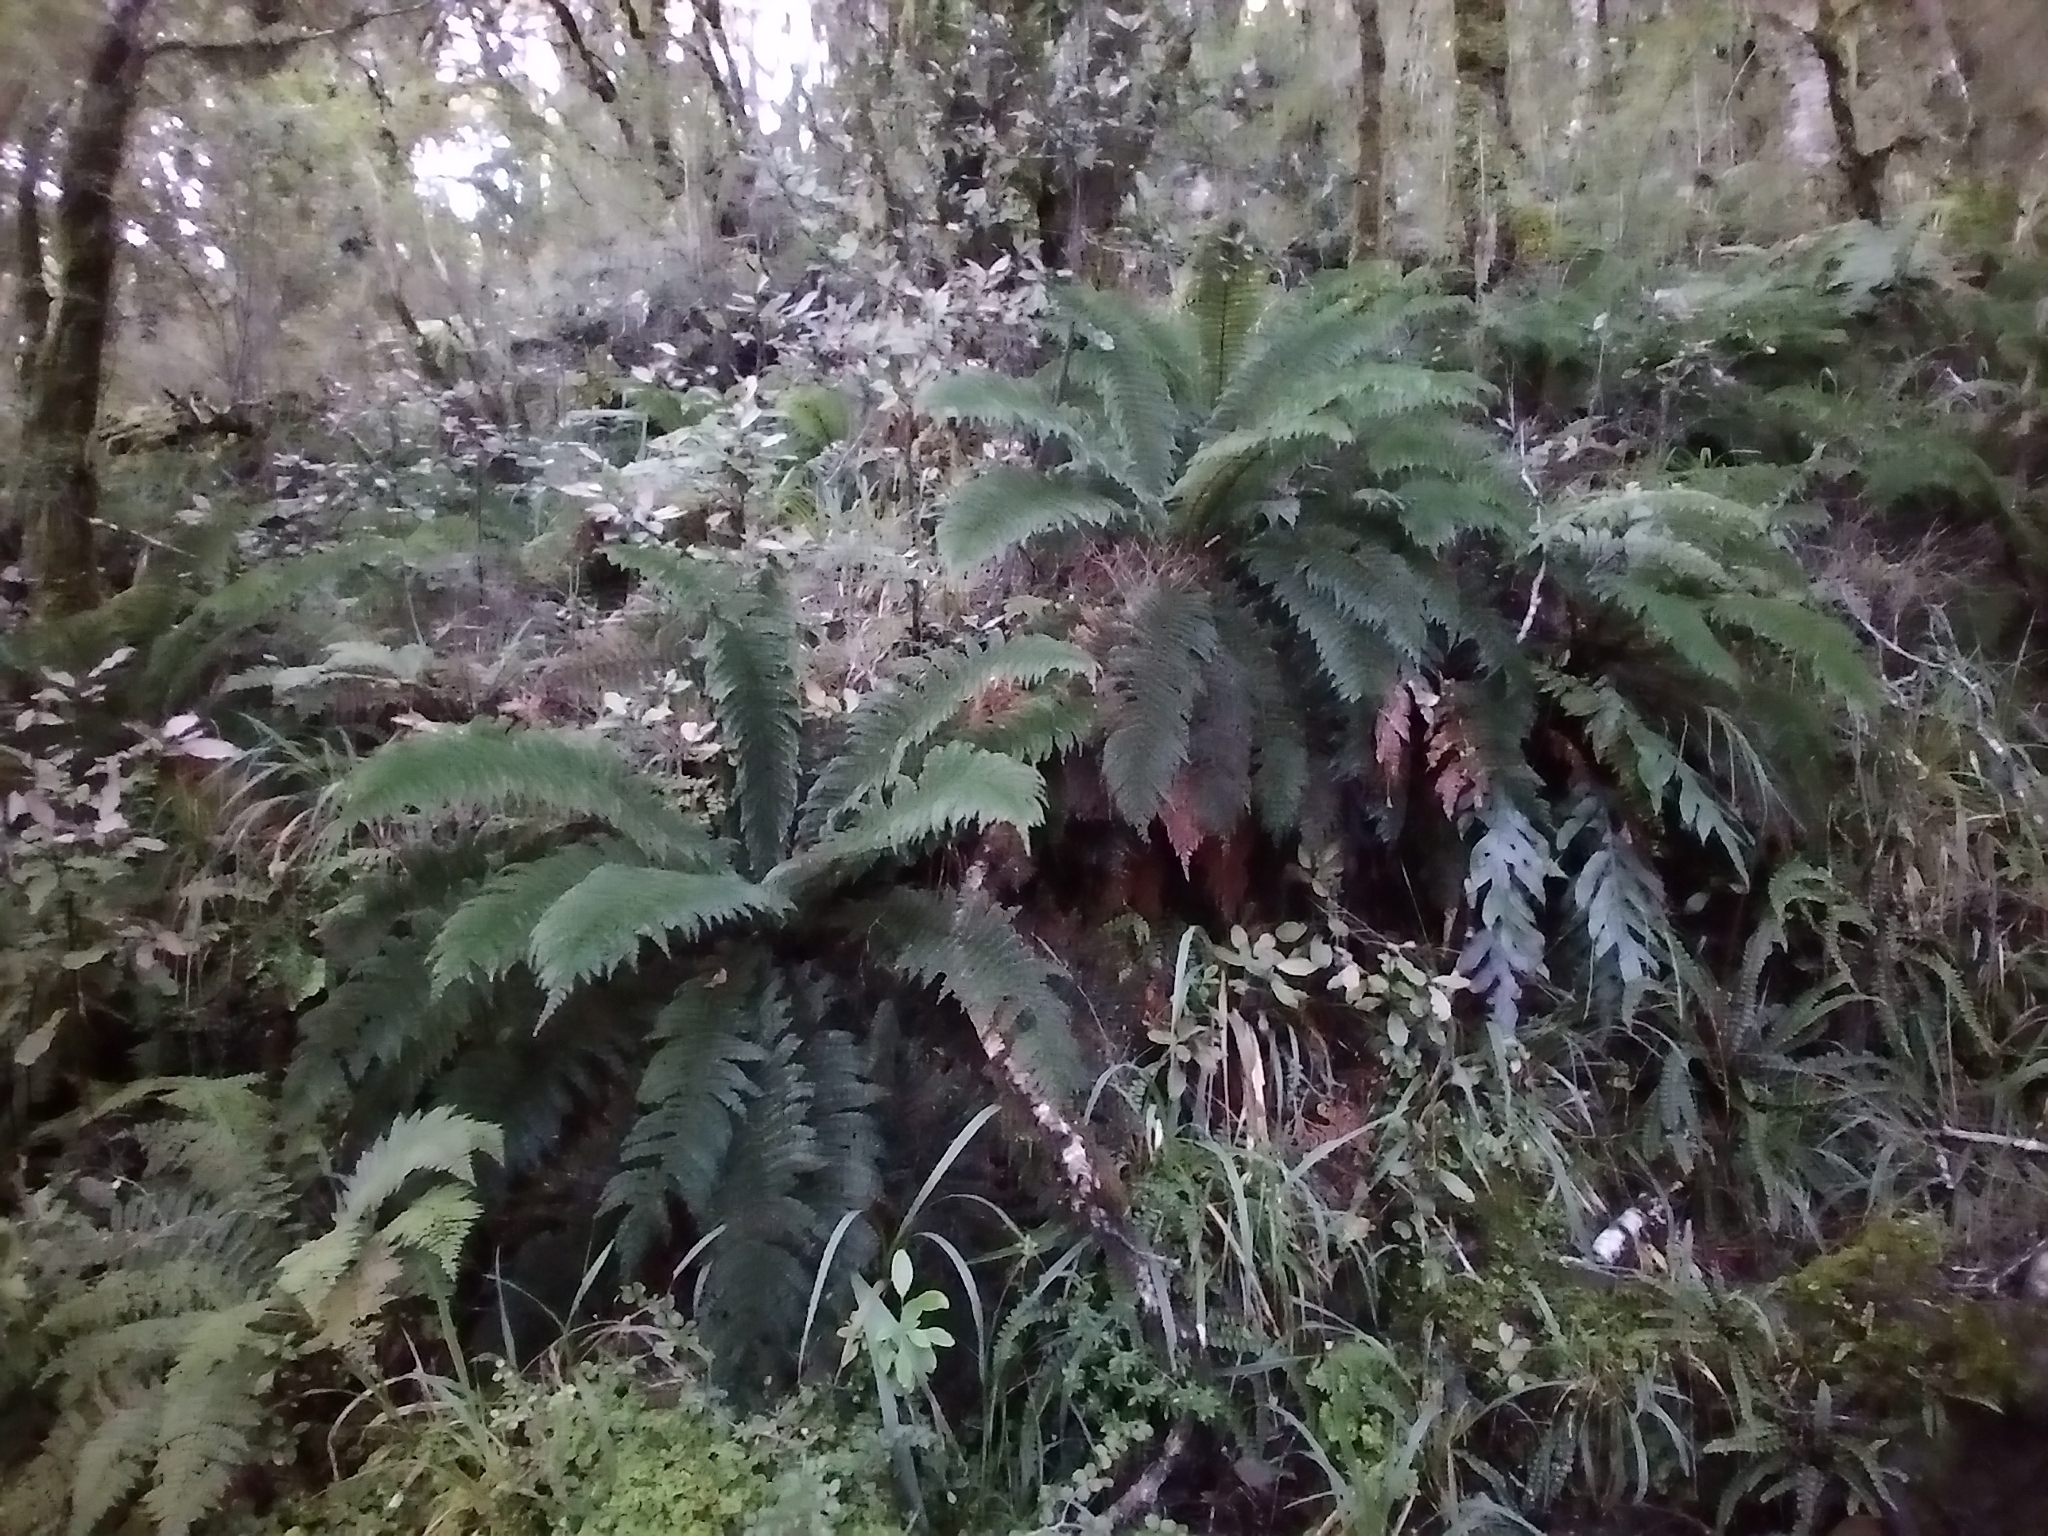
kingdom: Plantae
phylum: Tracheophyta
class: Polypodiopsida
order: Osmundales
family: Osmundaceae
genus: Leptopteris
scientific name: Leptopteris superba
